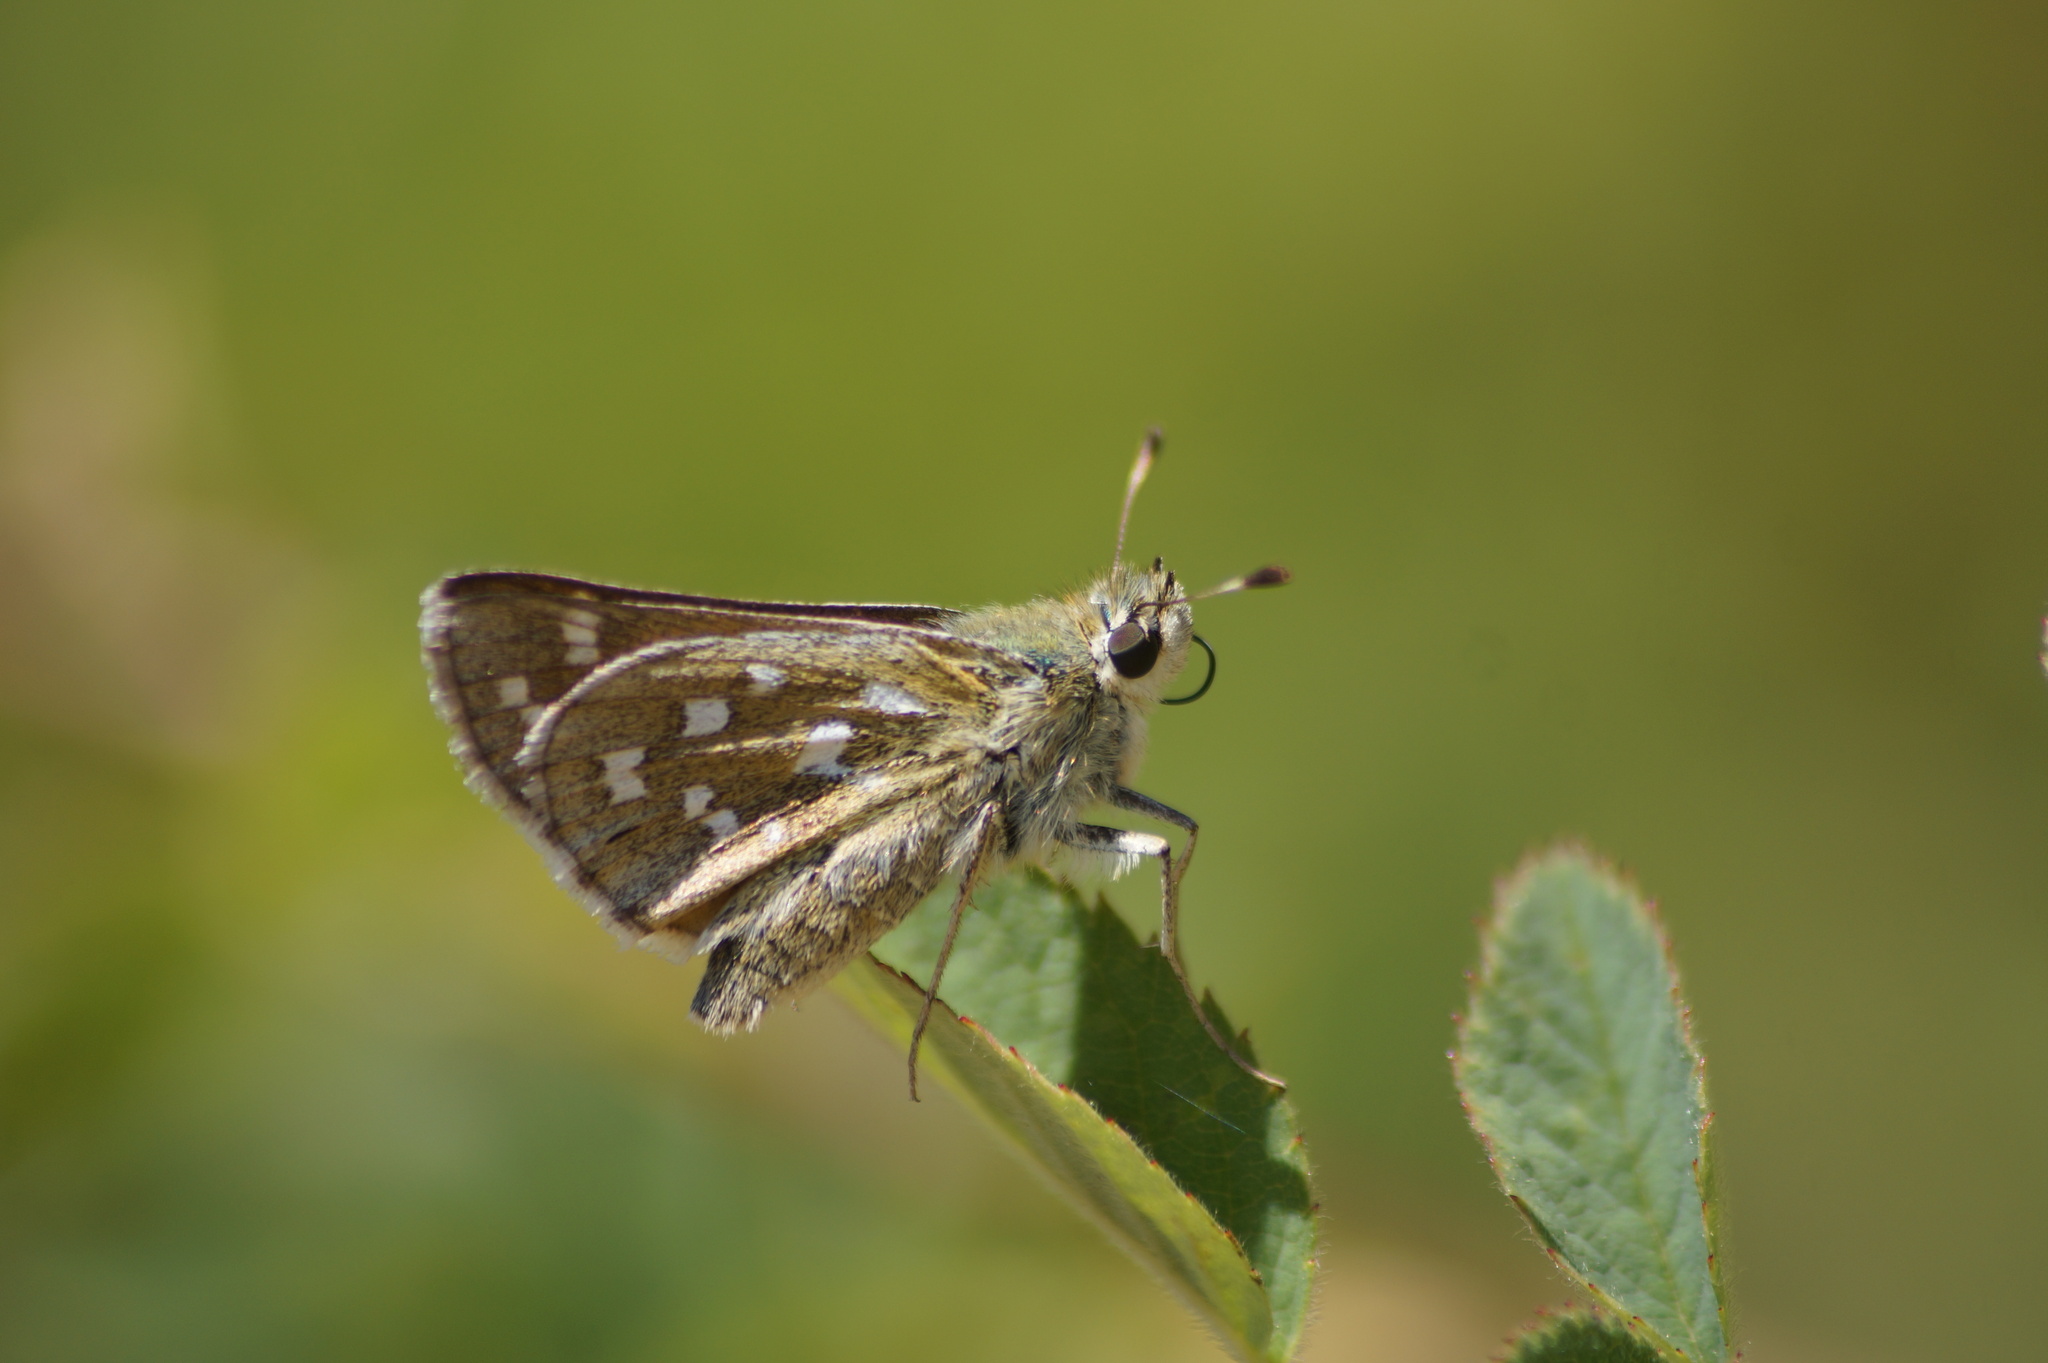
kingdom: Animalia
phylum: Arthropoda
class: Insecta
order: Lepidoptera
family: Hesperiidae
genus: Hesperia
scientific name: Hesperia comma
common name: Common branded skipper
